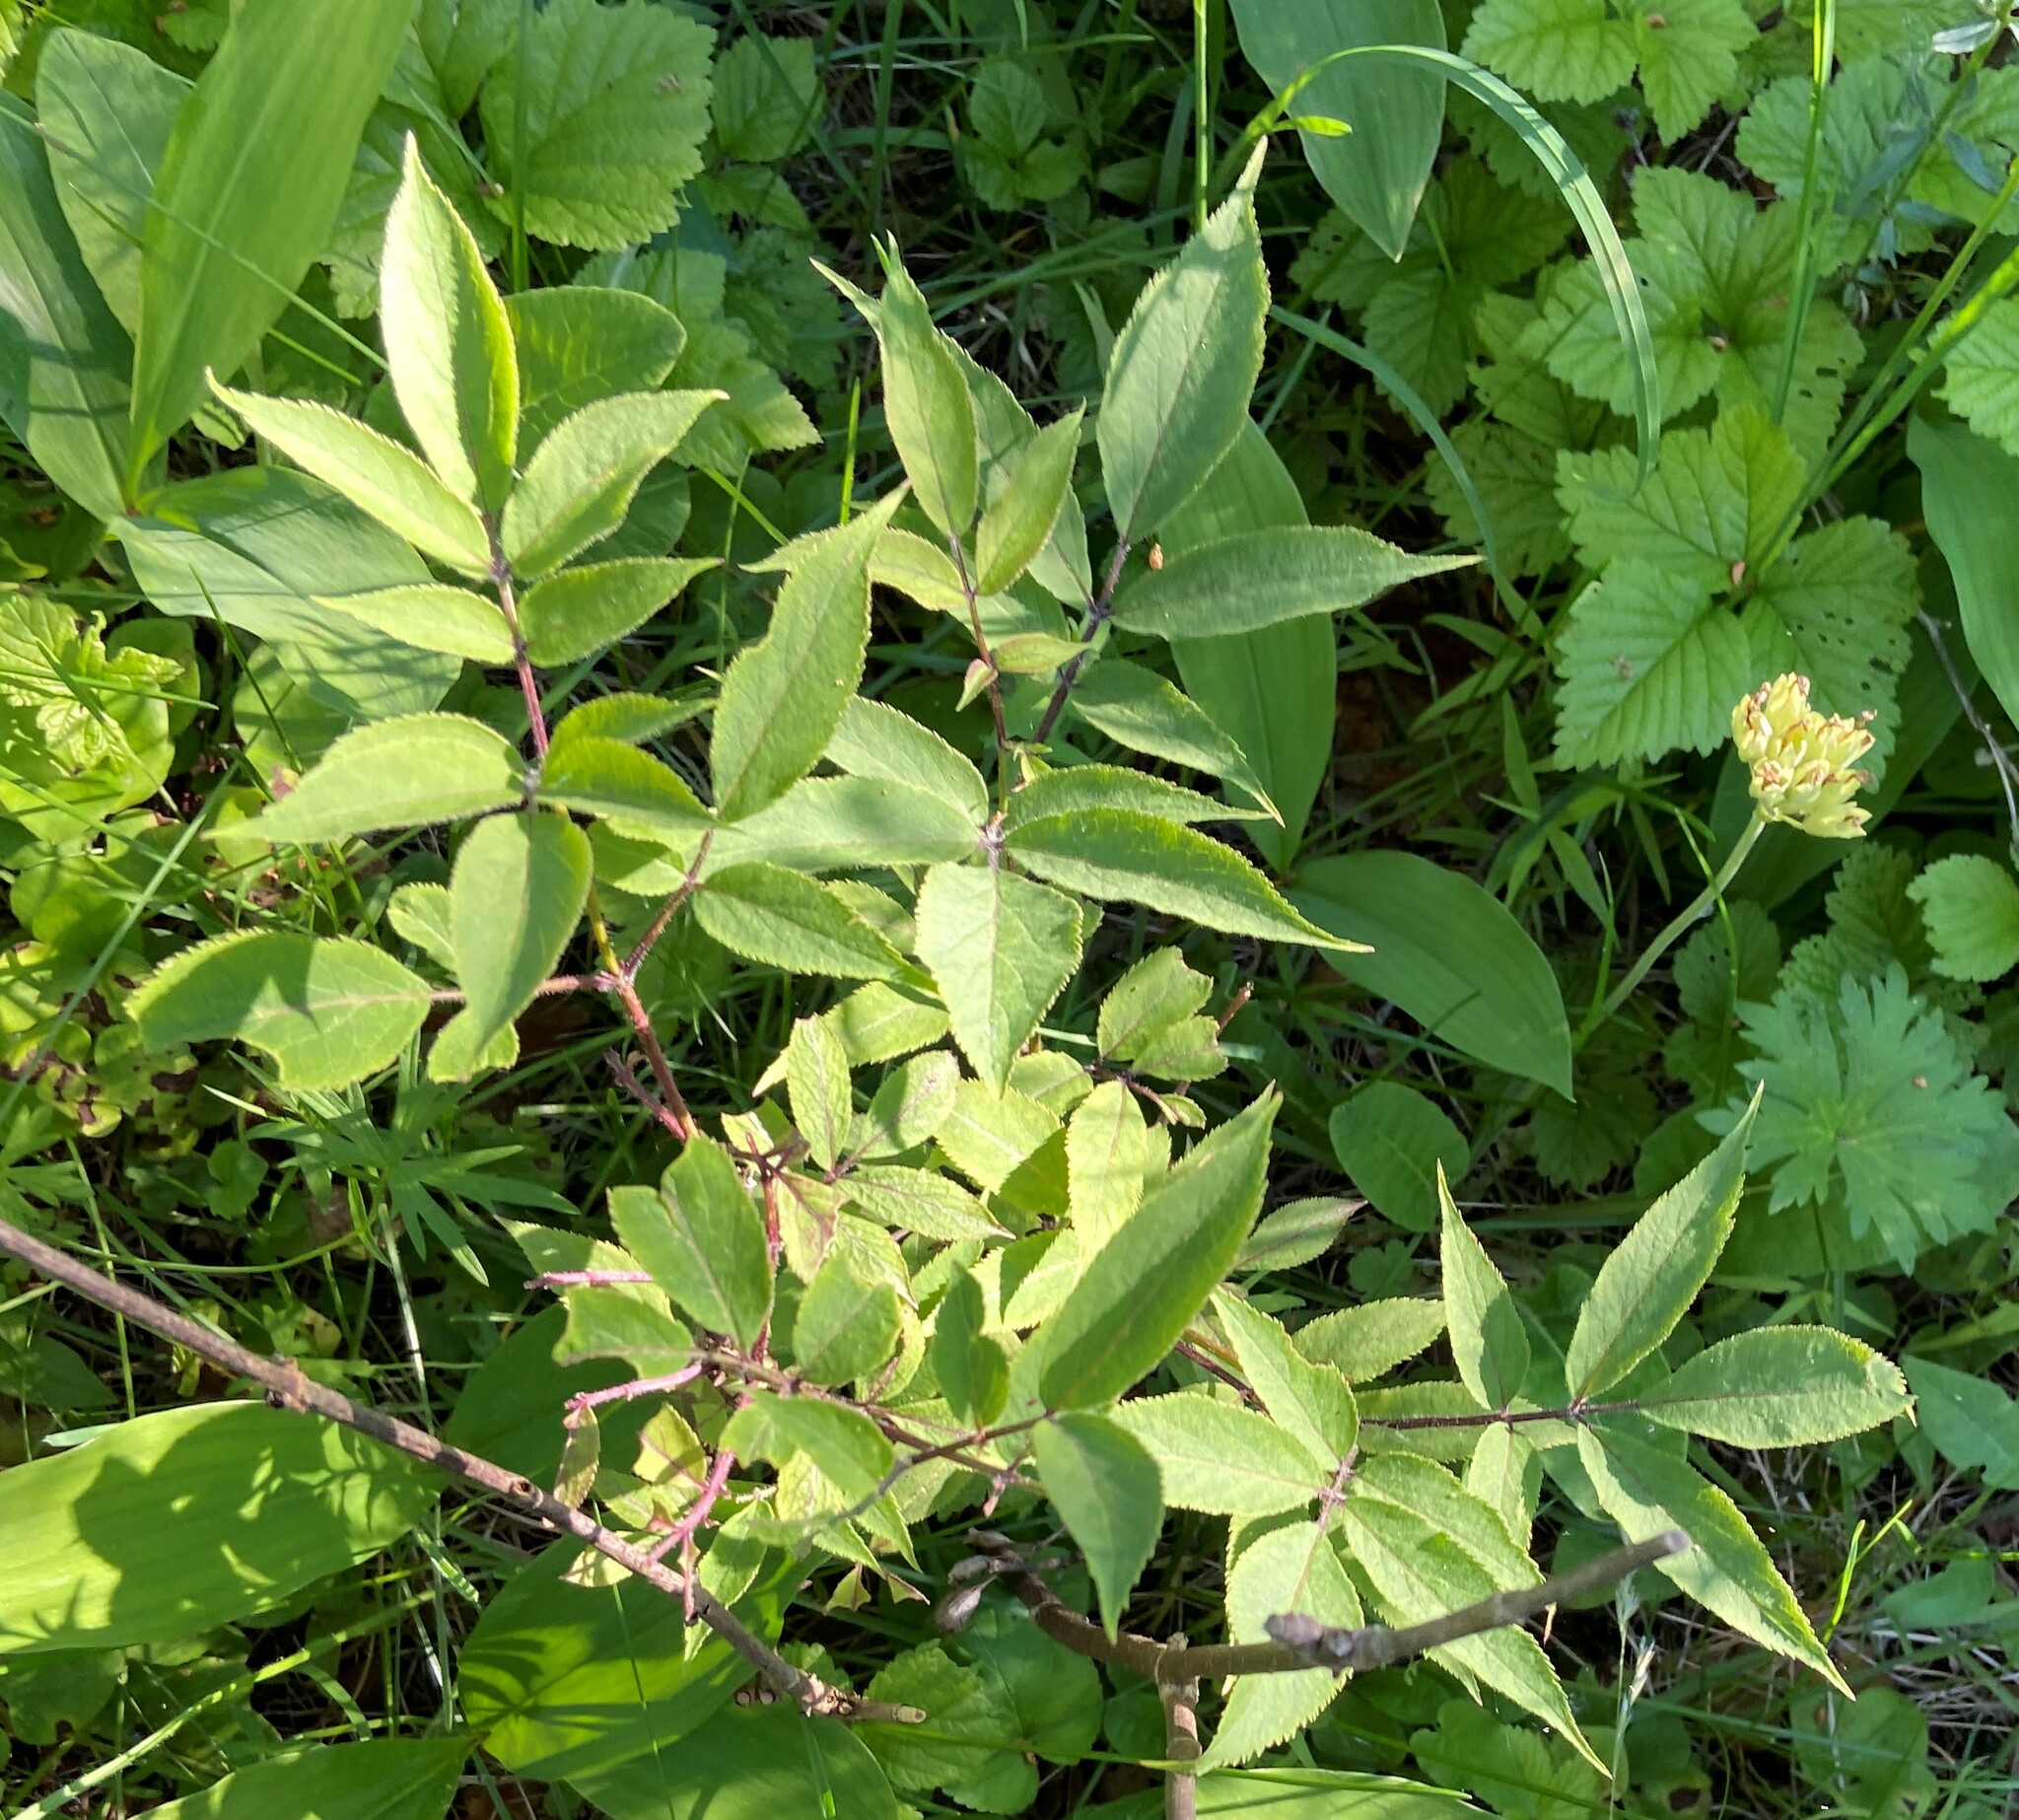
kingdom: Plantae
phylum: Tracheophyta
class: Magnoliopsida
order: Dipsacales
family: Viburnaceae
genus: Sambucus
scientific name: Sambucus racemosa
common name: Red-berried elder
